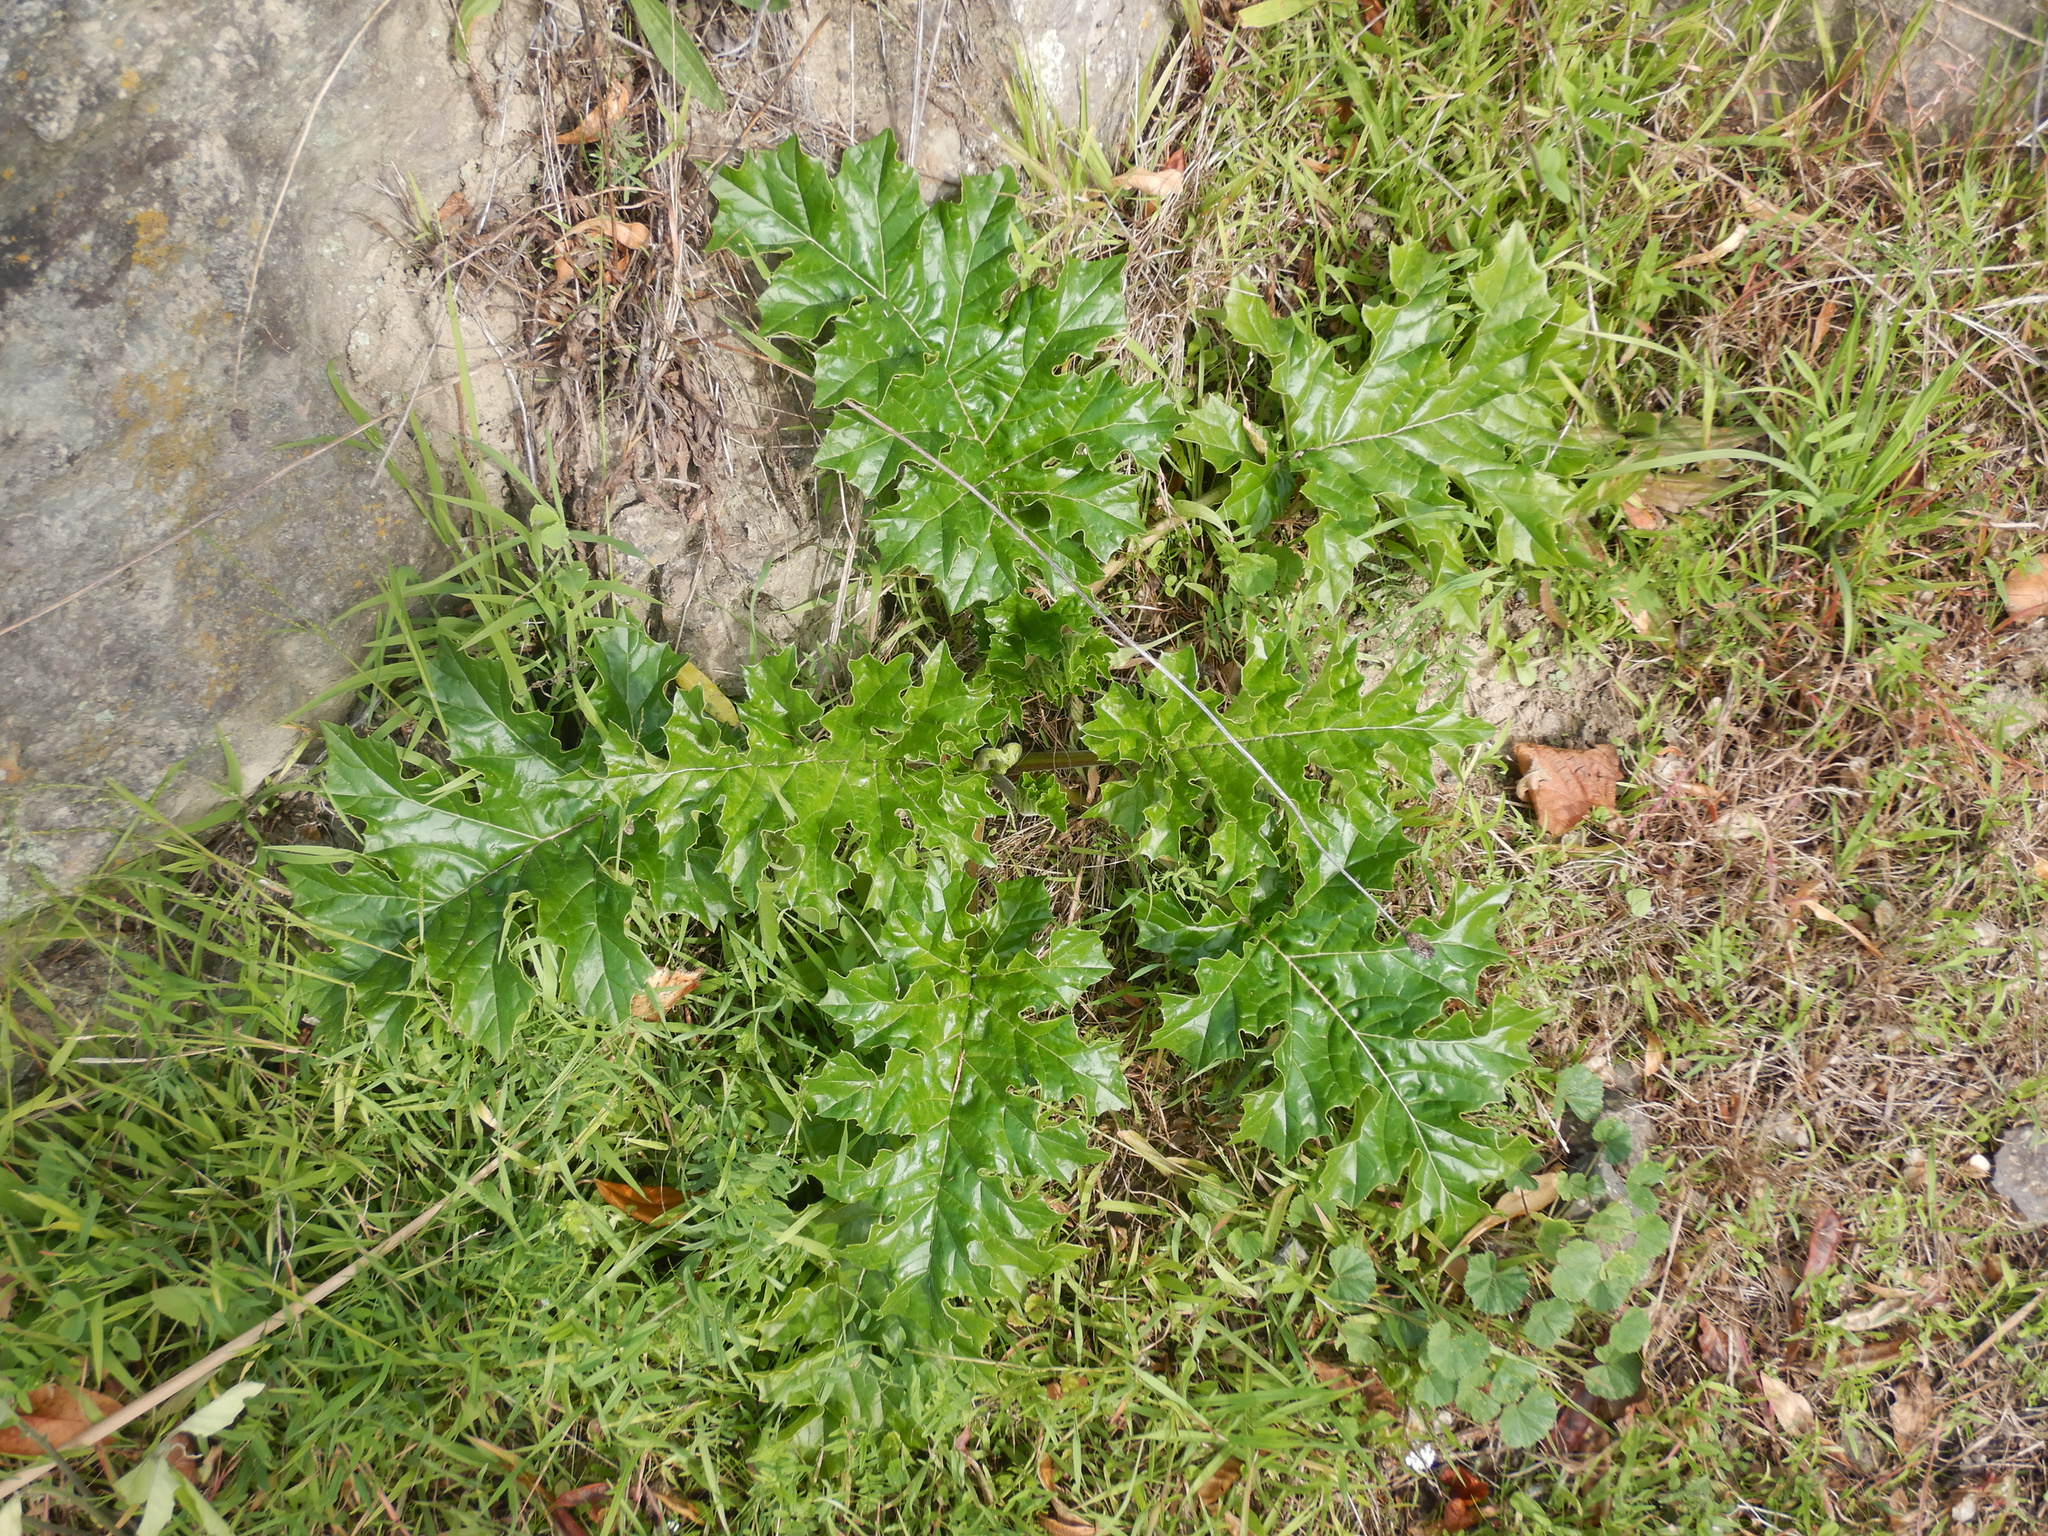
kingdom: Plantae
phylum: Tracheophyta
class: Magnoliopsida
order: Lamiales
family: Acanthaceae
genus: Acanthus
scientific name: Acanthus mollis
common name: Bear's-breech
